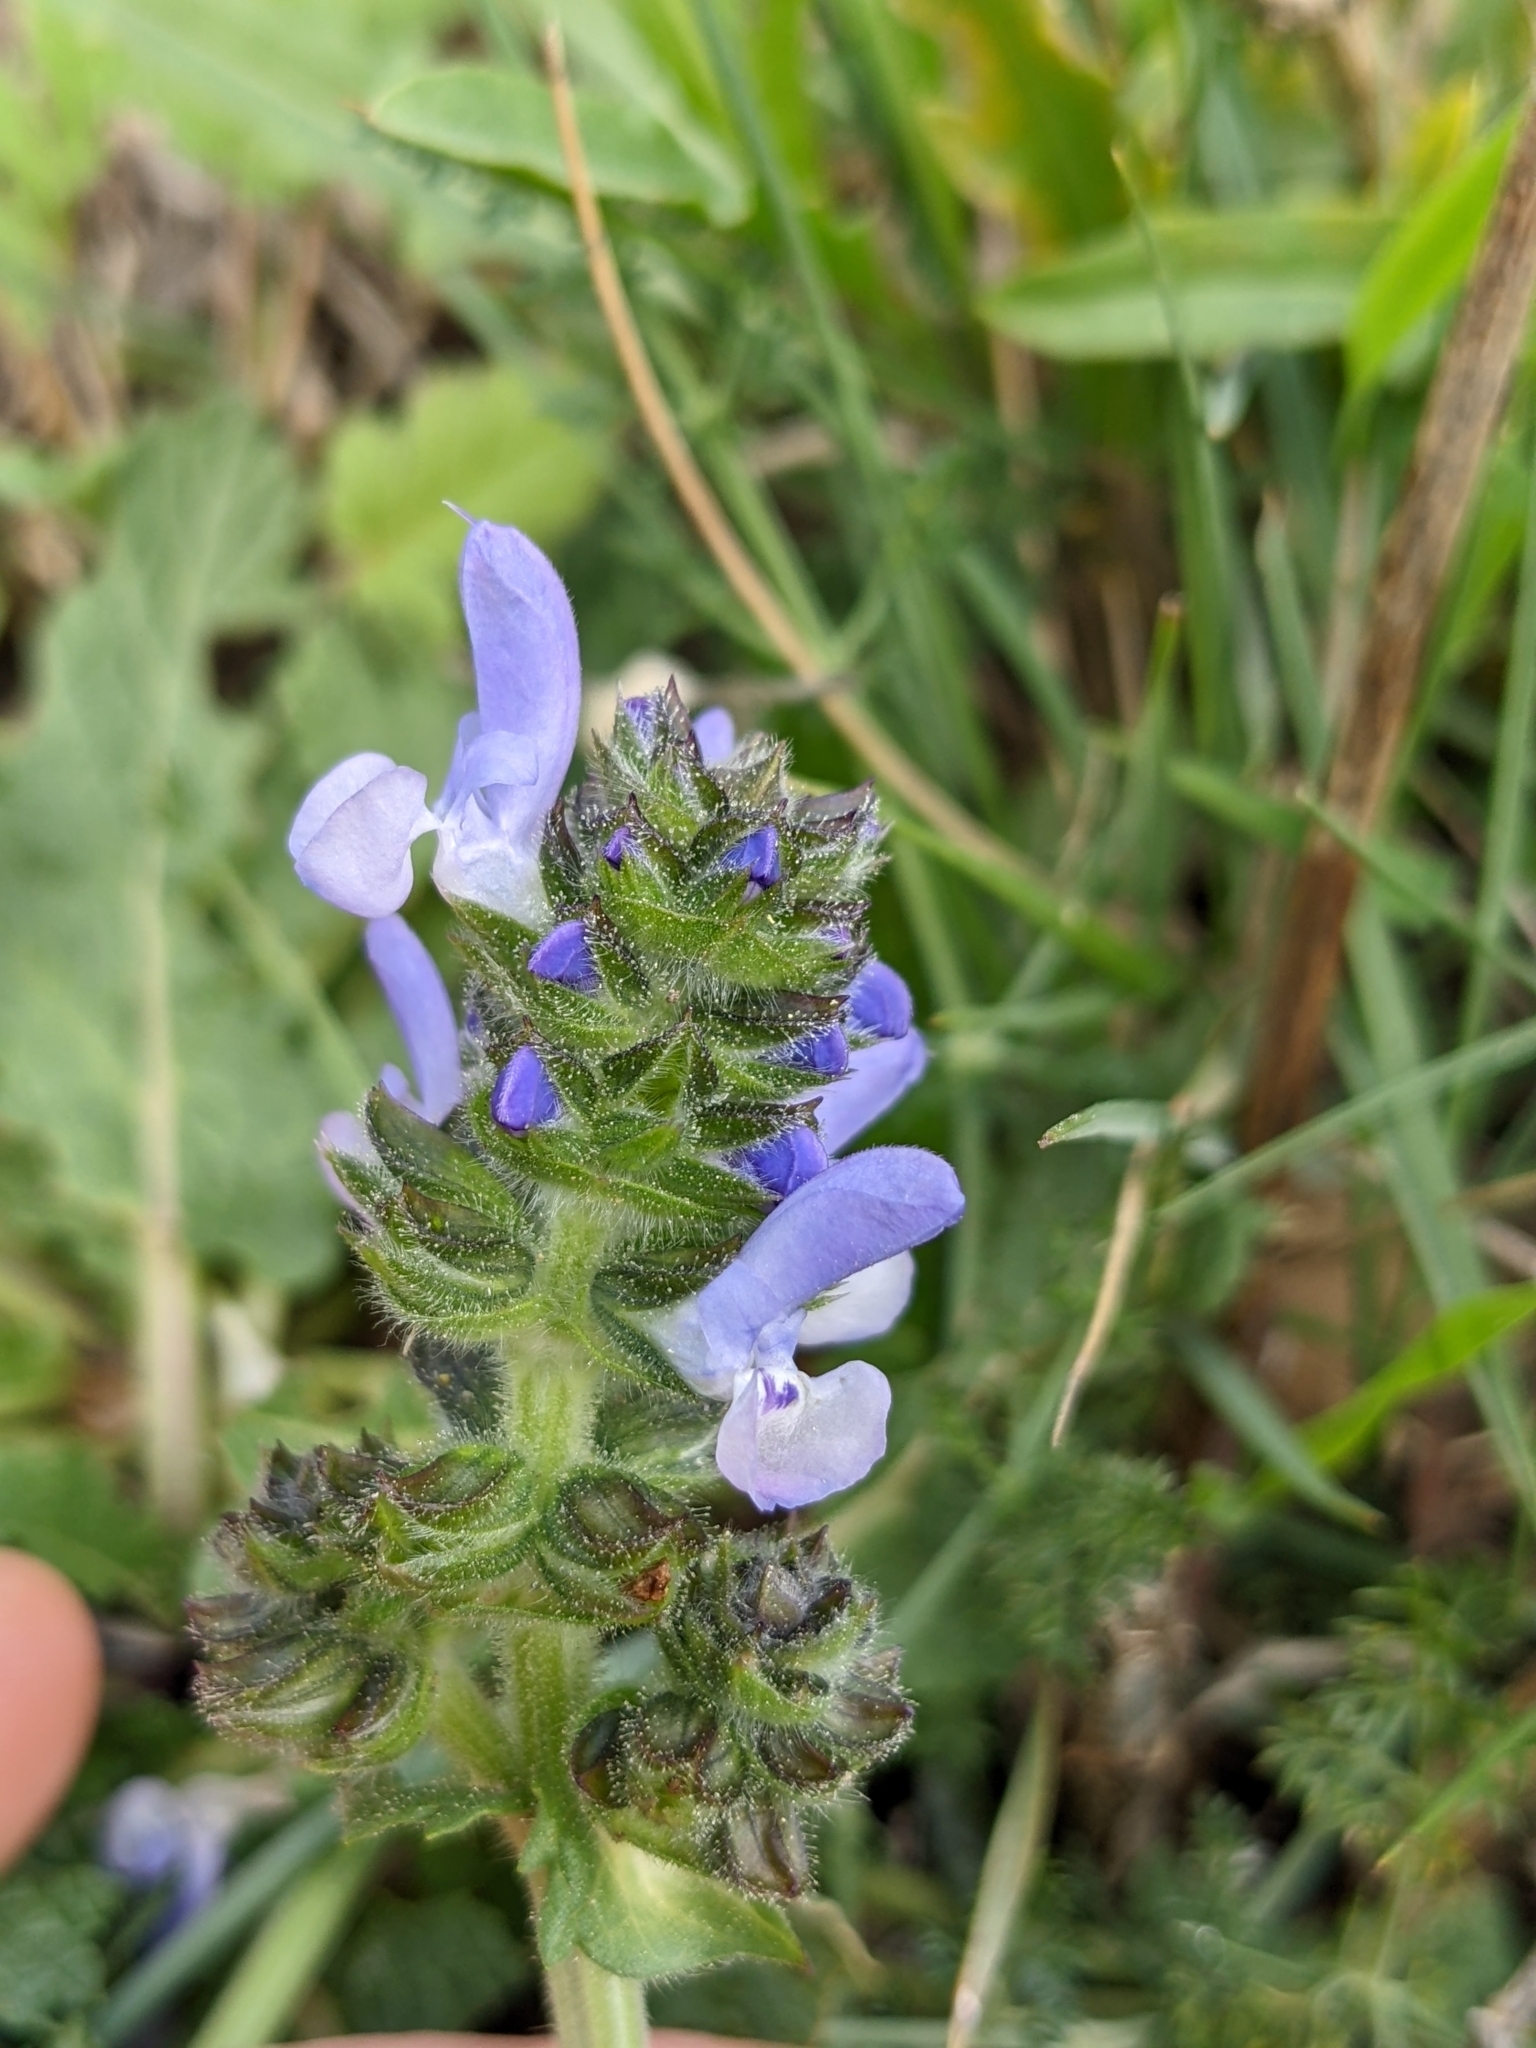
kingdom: Plantae
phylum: Tracheophyta
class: Magnoliopsida
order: Lamiales
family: Lamiaceae
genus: Salvia
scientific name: Salvia verbenaca
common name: Wild clary
